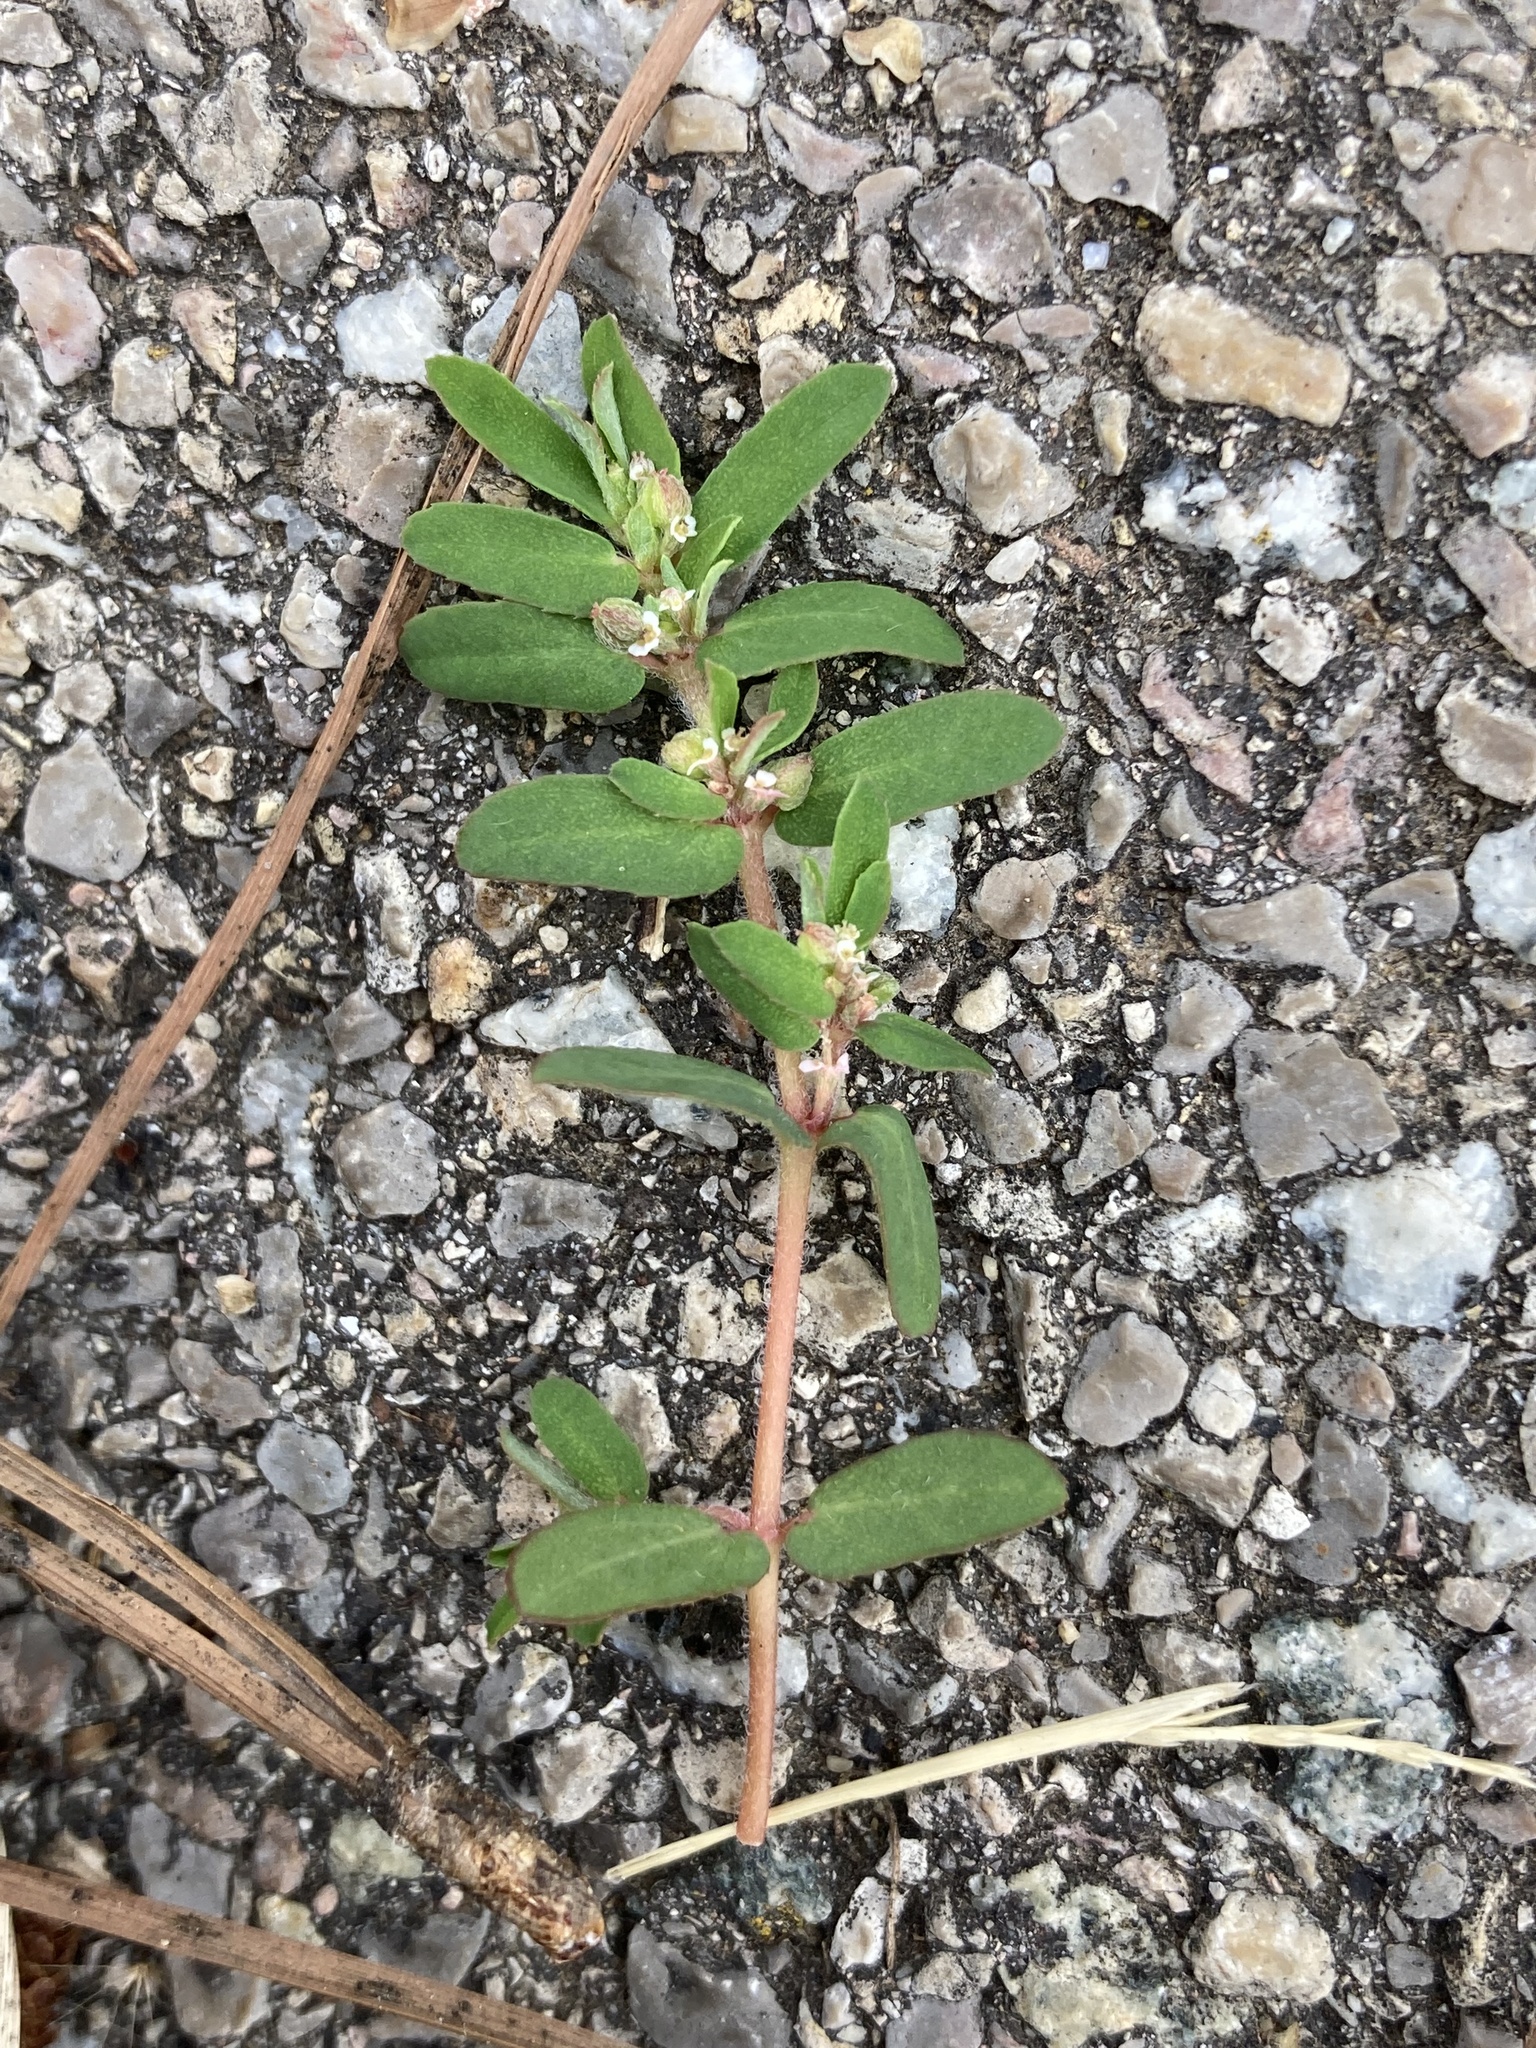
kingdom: Plantae
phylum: Tracheophyta
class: Magnoliopsida
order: Malpighiales
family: Euphorbiaceae
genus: Euphorbia
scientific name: Euphorbia maculata
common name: Spotted spurge
